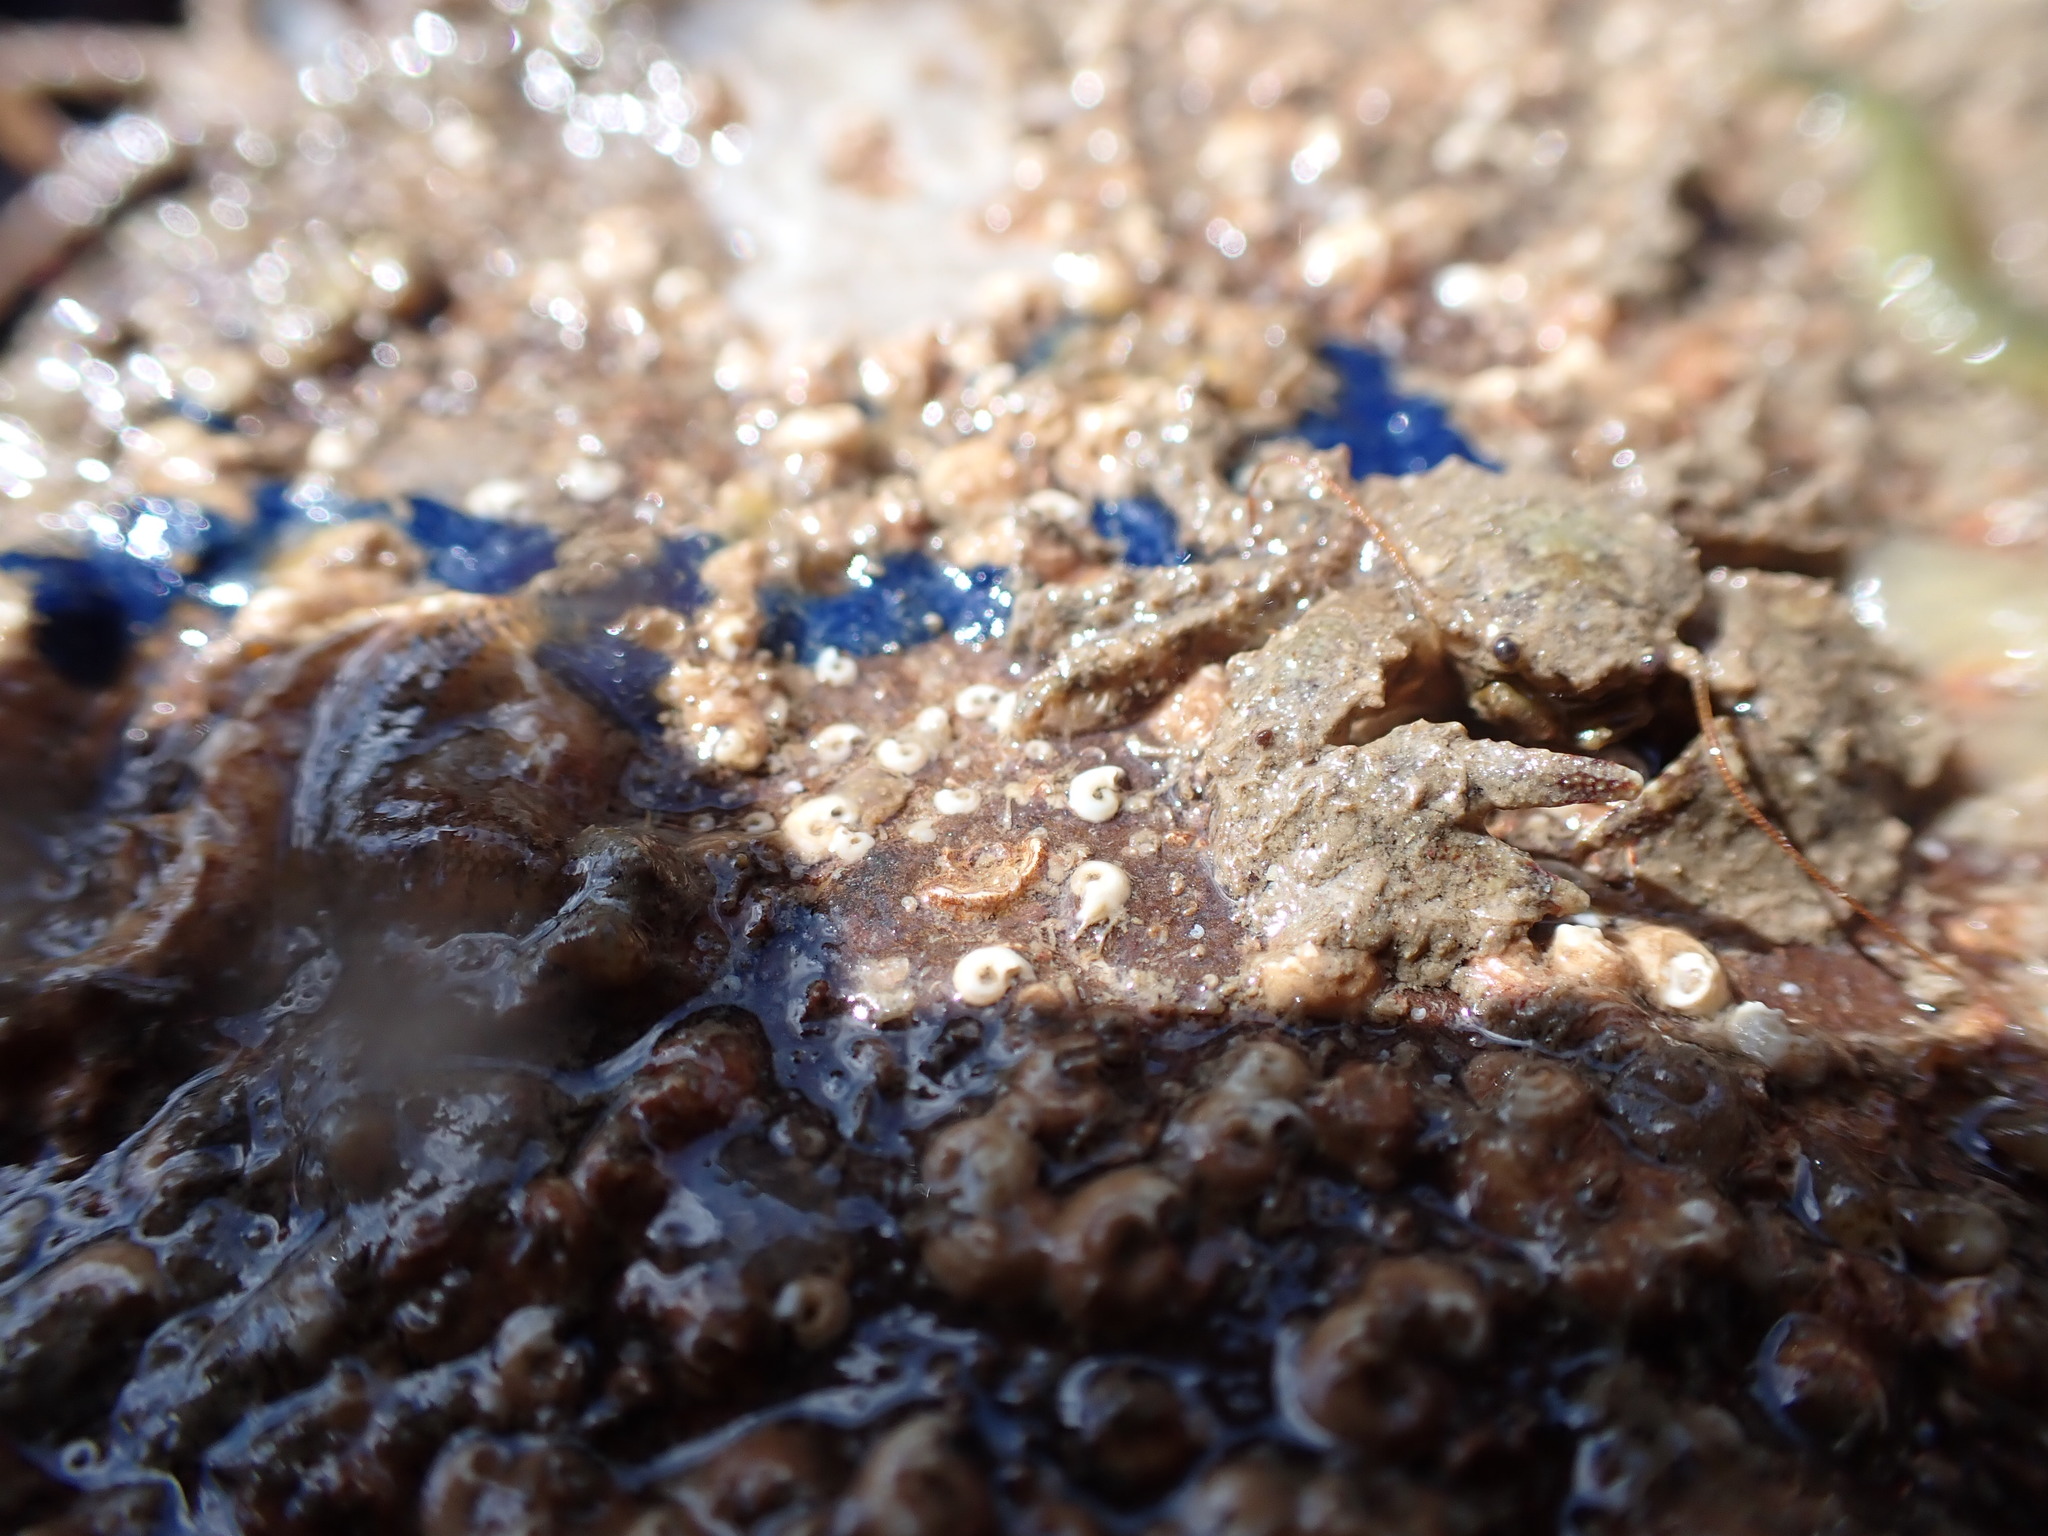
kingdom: Animalia
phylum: Porifera
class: Demospongiae
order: Suberitida
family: Suberitidae
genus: Terpios
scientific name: Terpios gelatinosus
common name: Blue encrusting sponge
